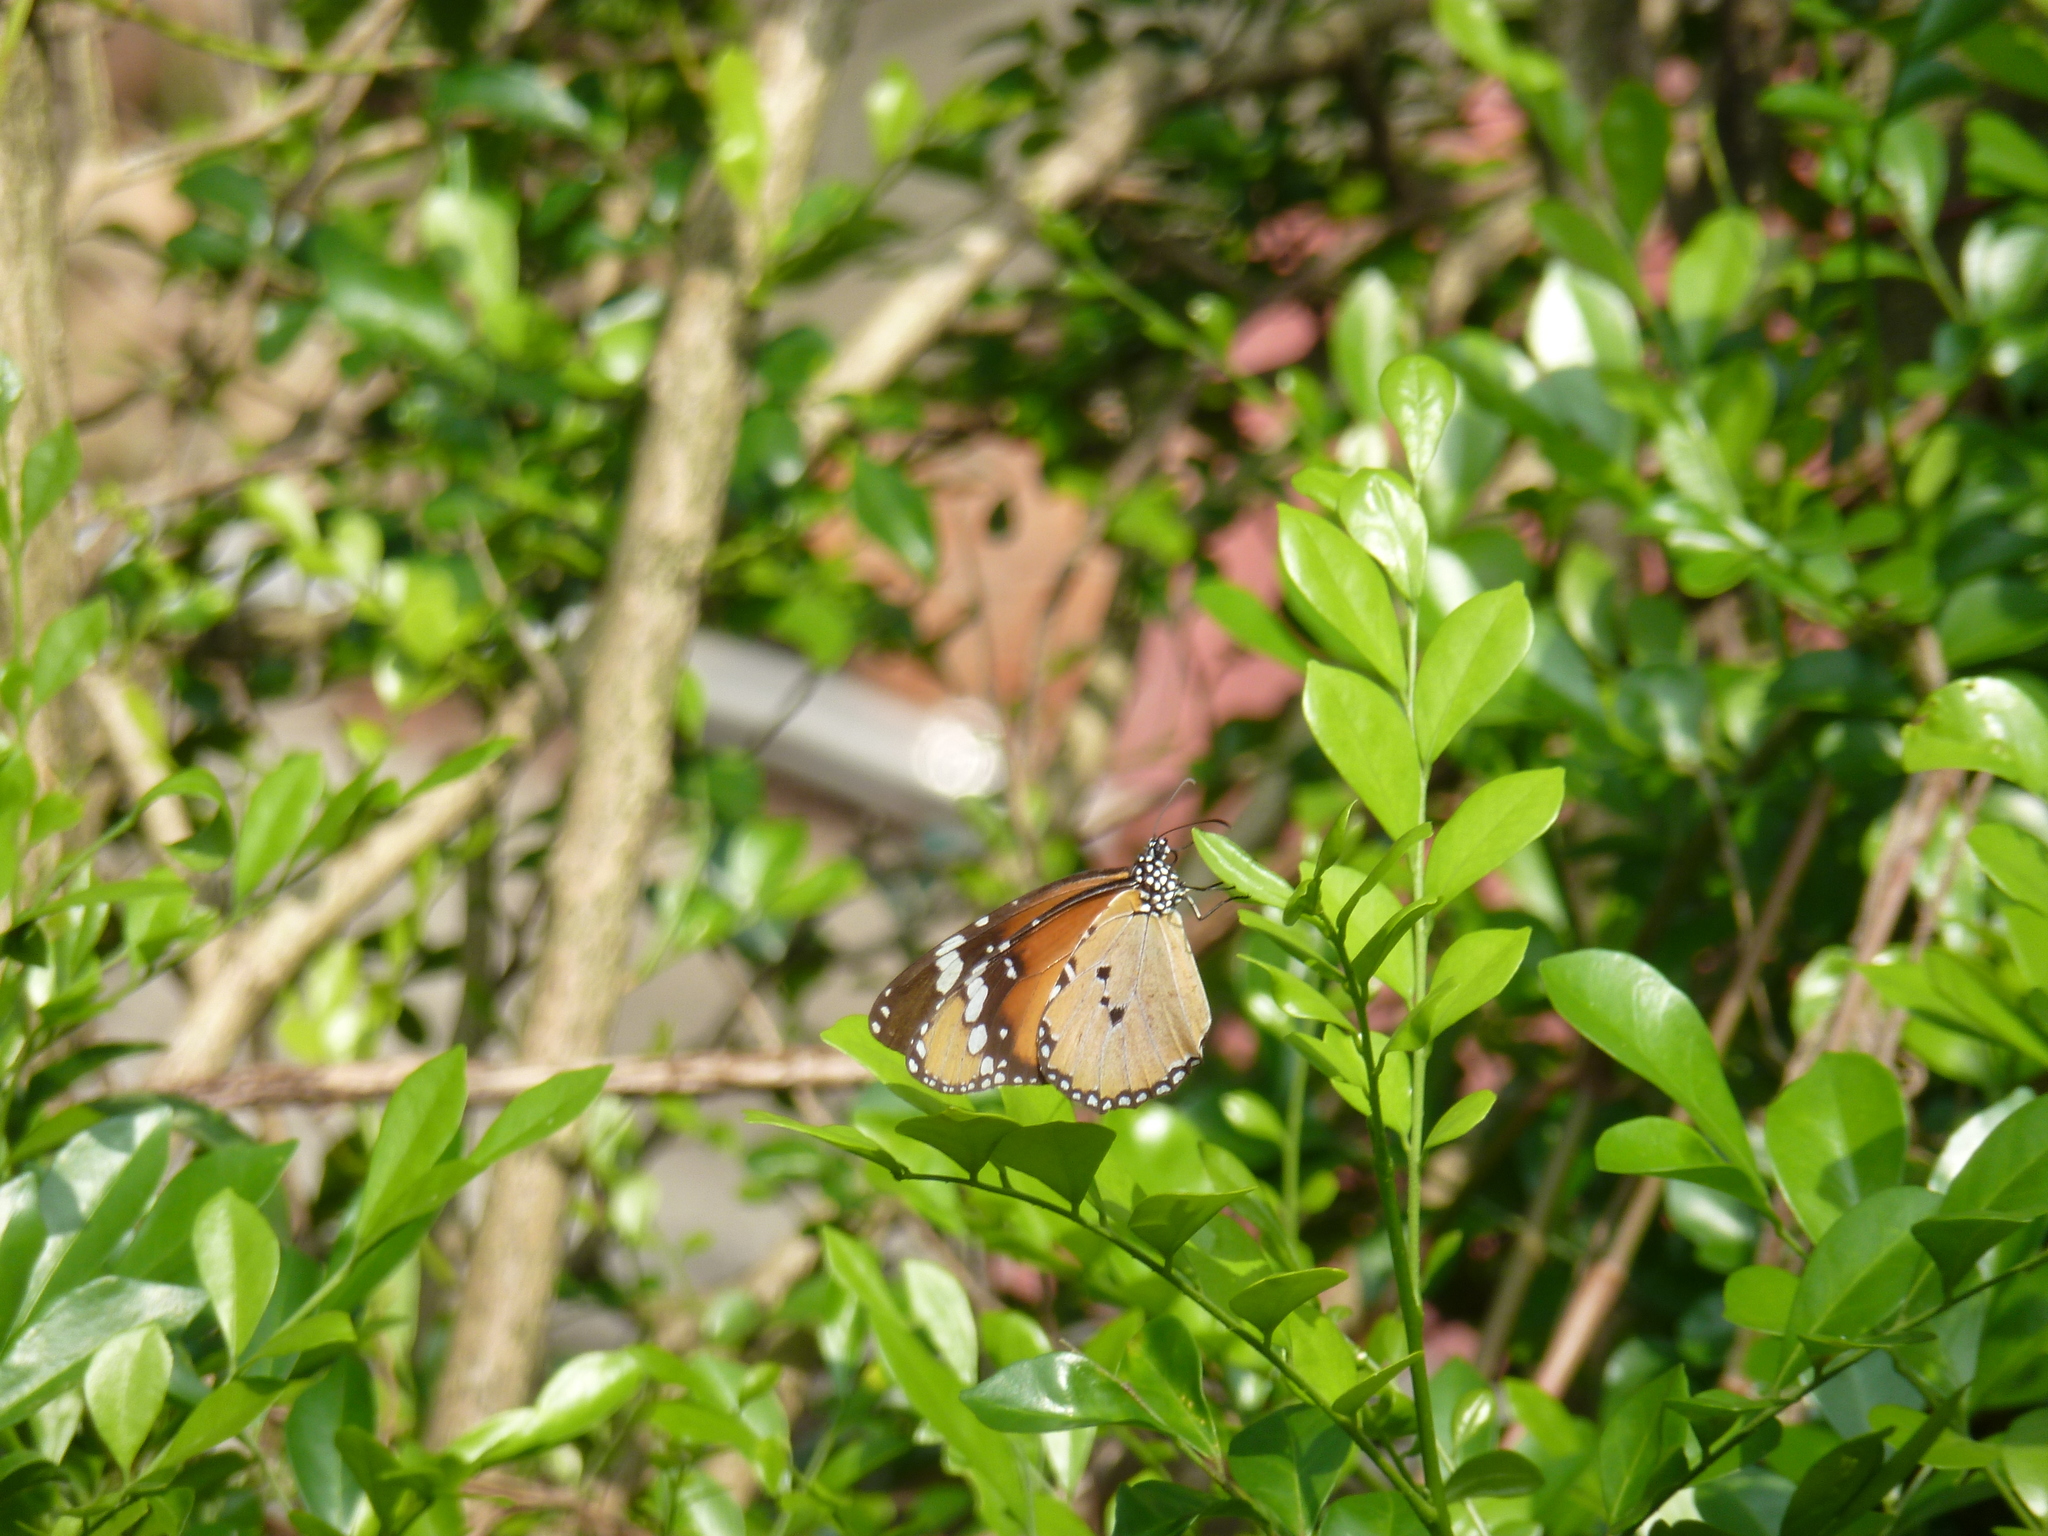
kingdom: Animalia
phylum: Arthropoda
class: Insecta
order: Lepidoptera
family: Nymphalidae
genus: Danaus
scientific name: Danaus chrysippus
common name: Plain tiger
